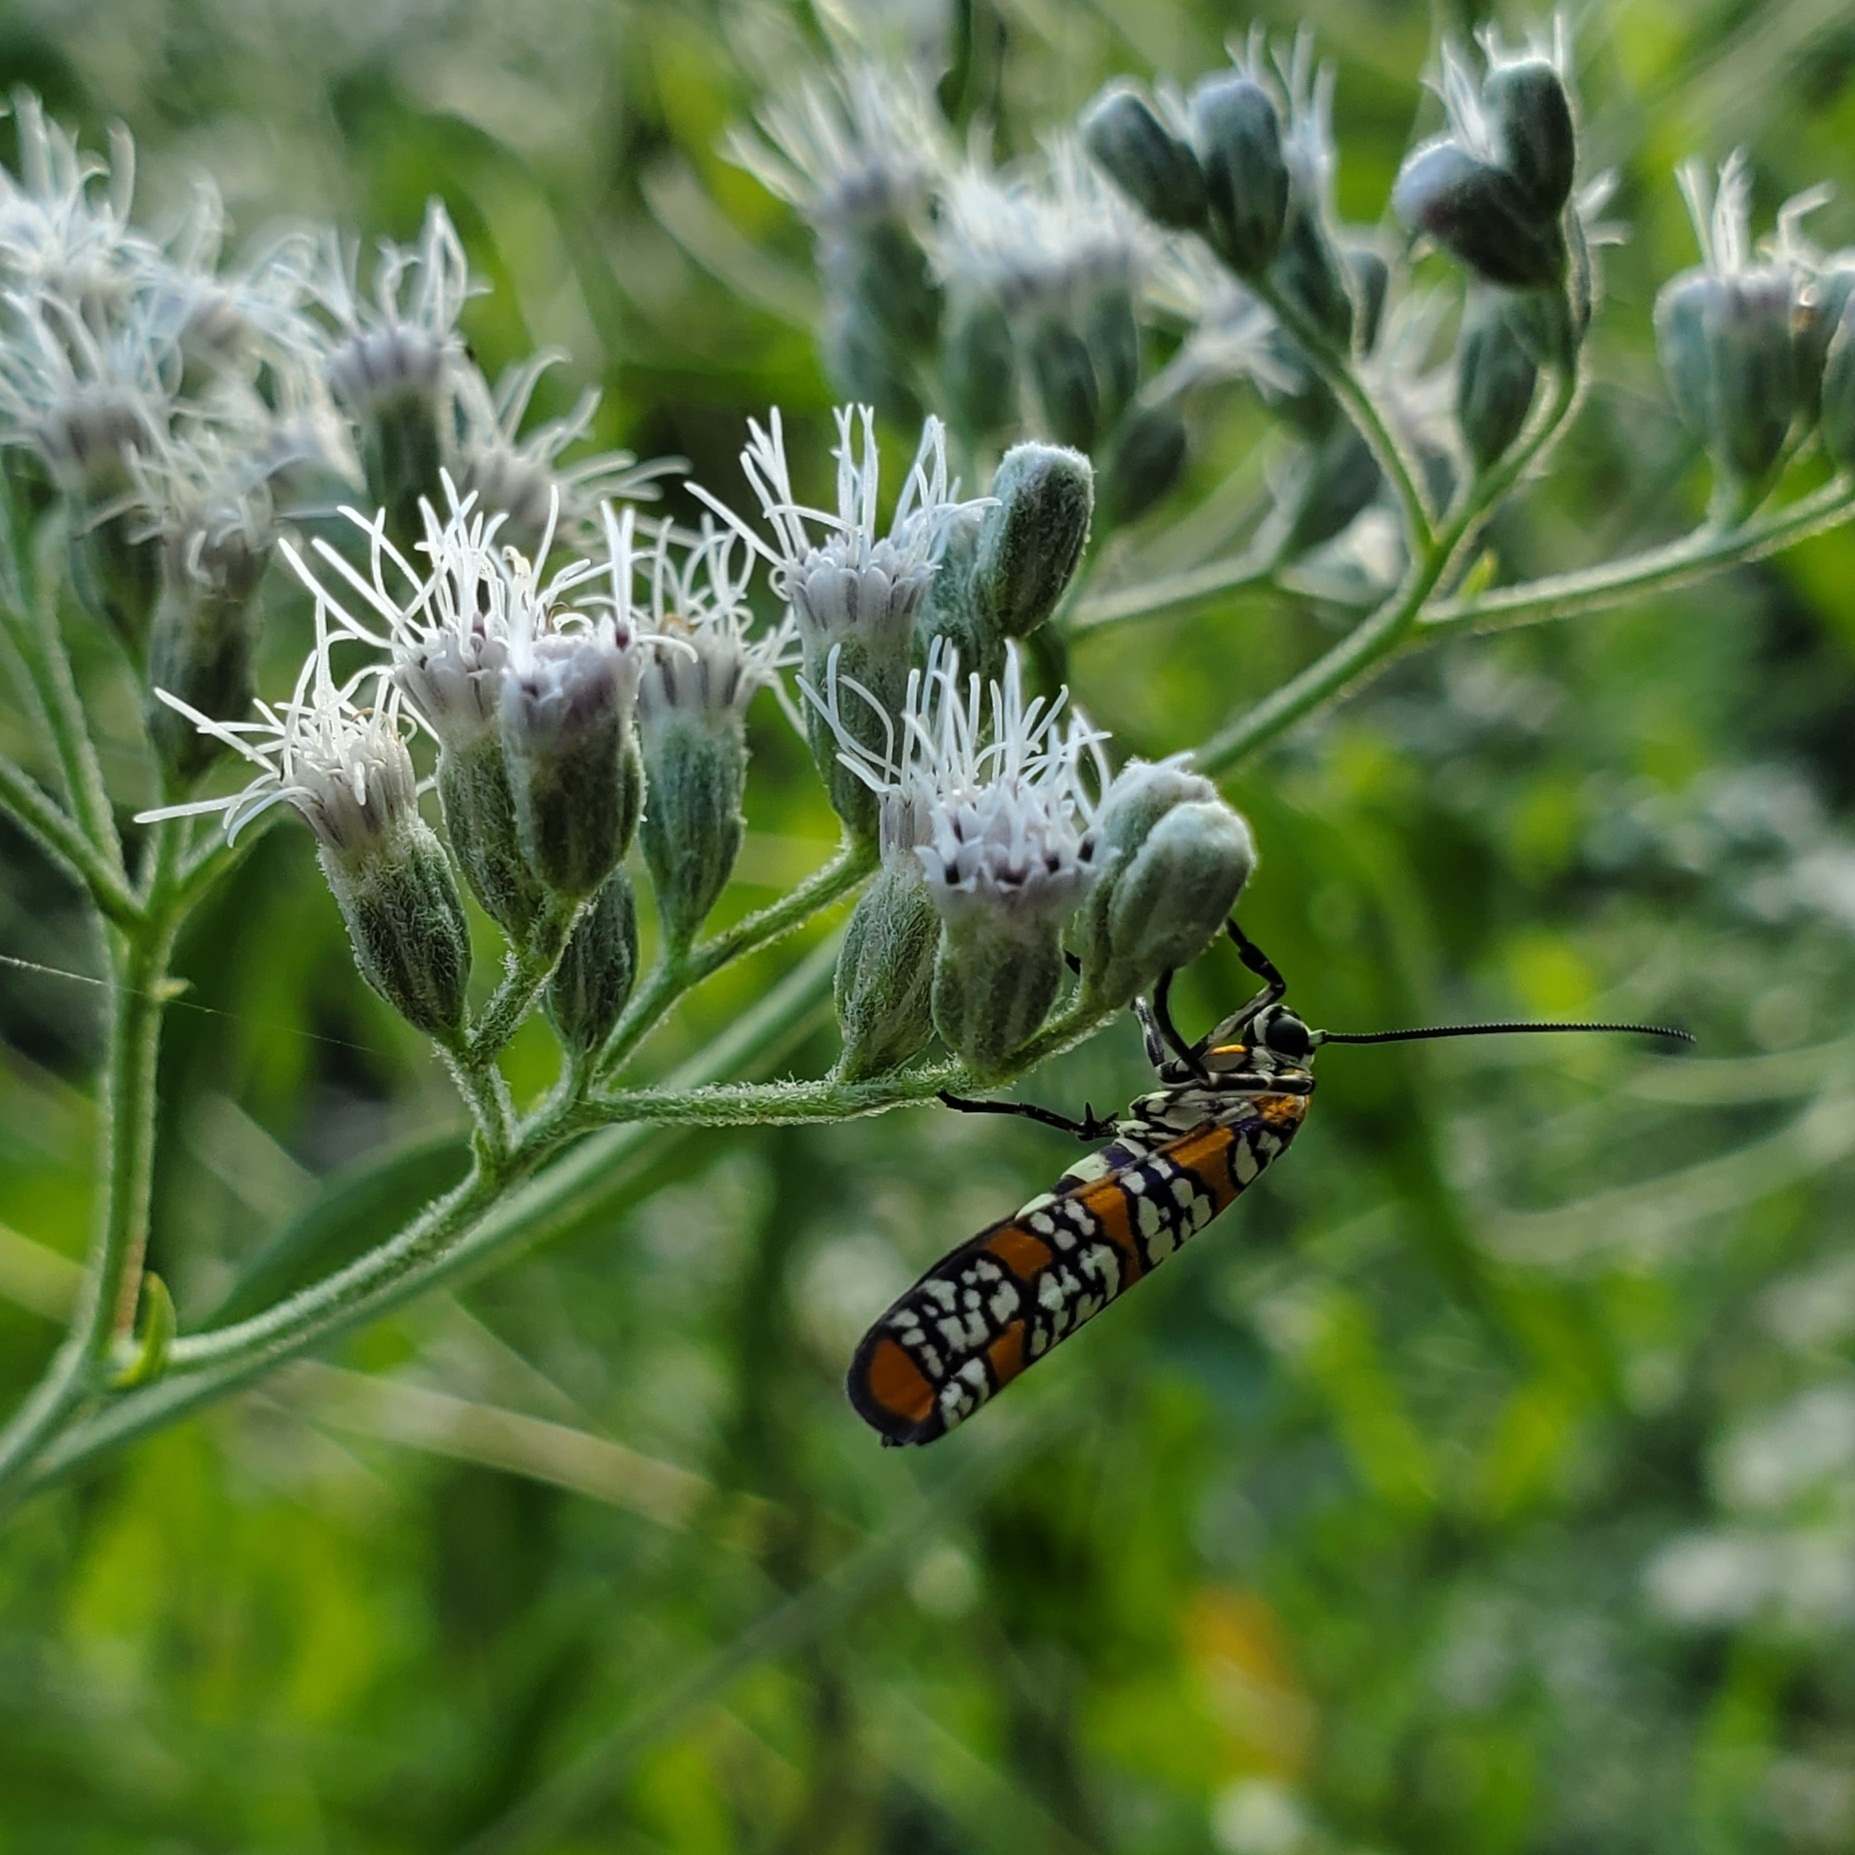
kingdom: Animalia
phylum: Arthropoda
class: Insecta
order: Lepidoptera
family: Attevidae
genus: Atteva
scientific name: Atteva punctella
